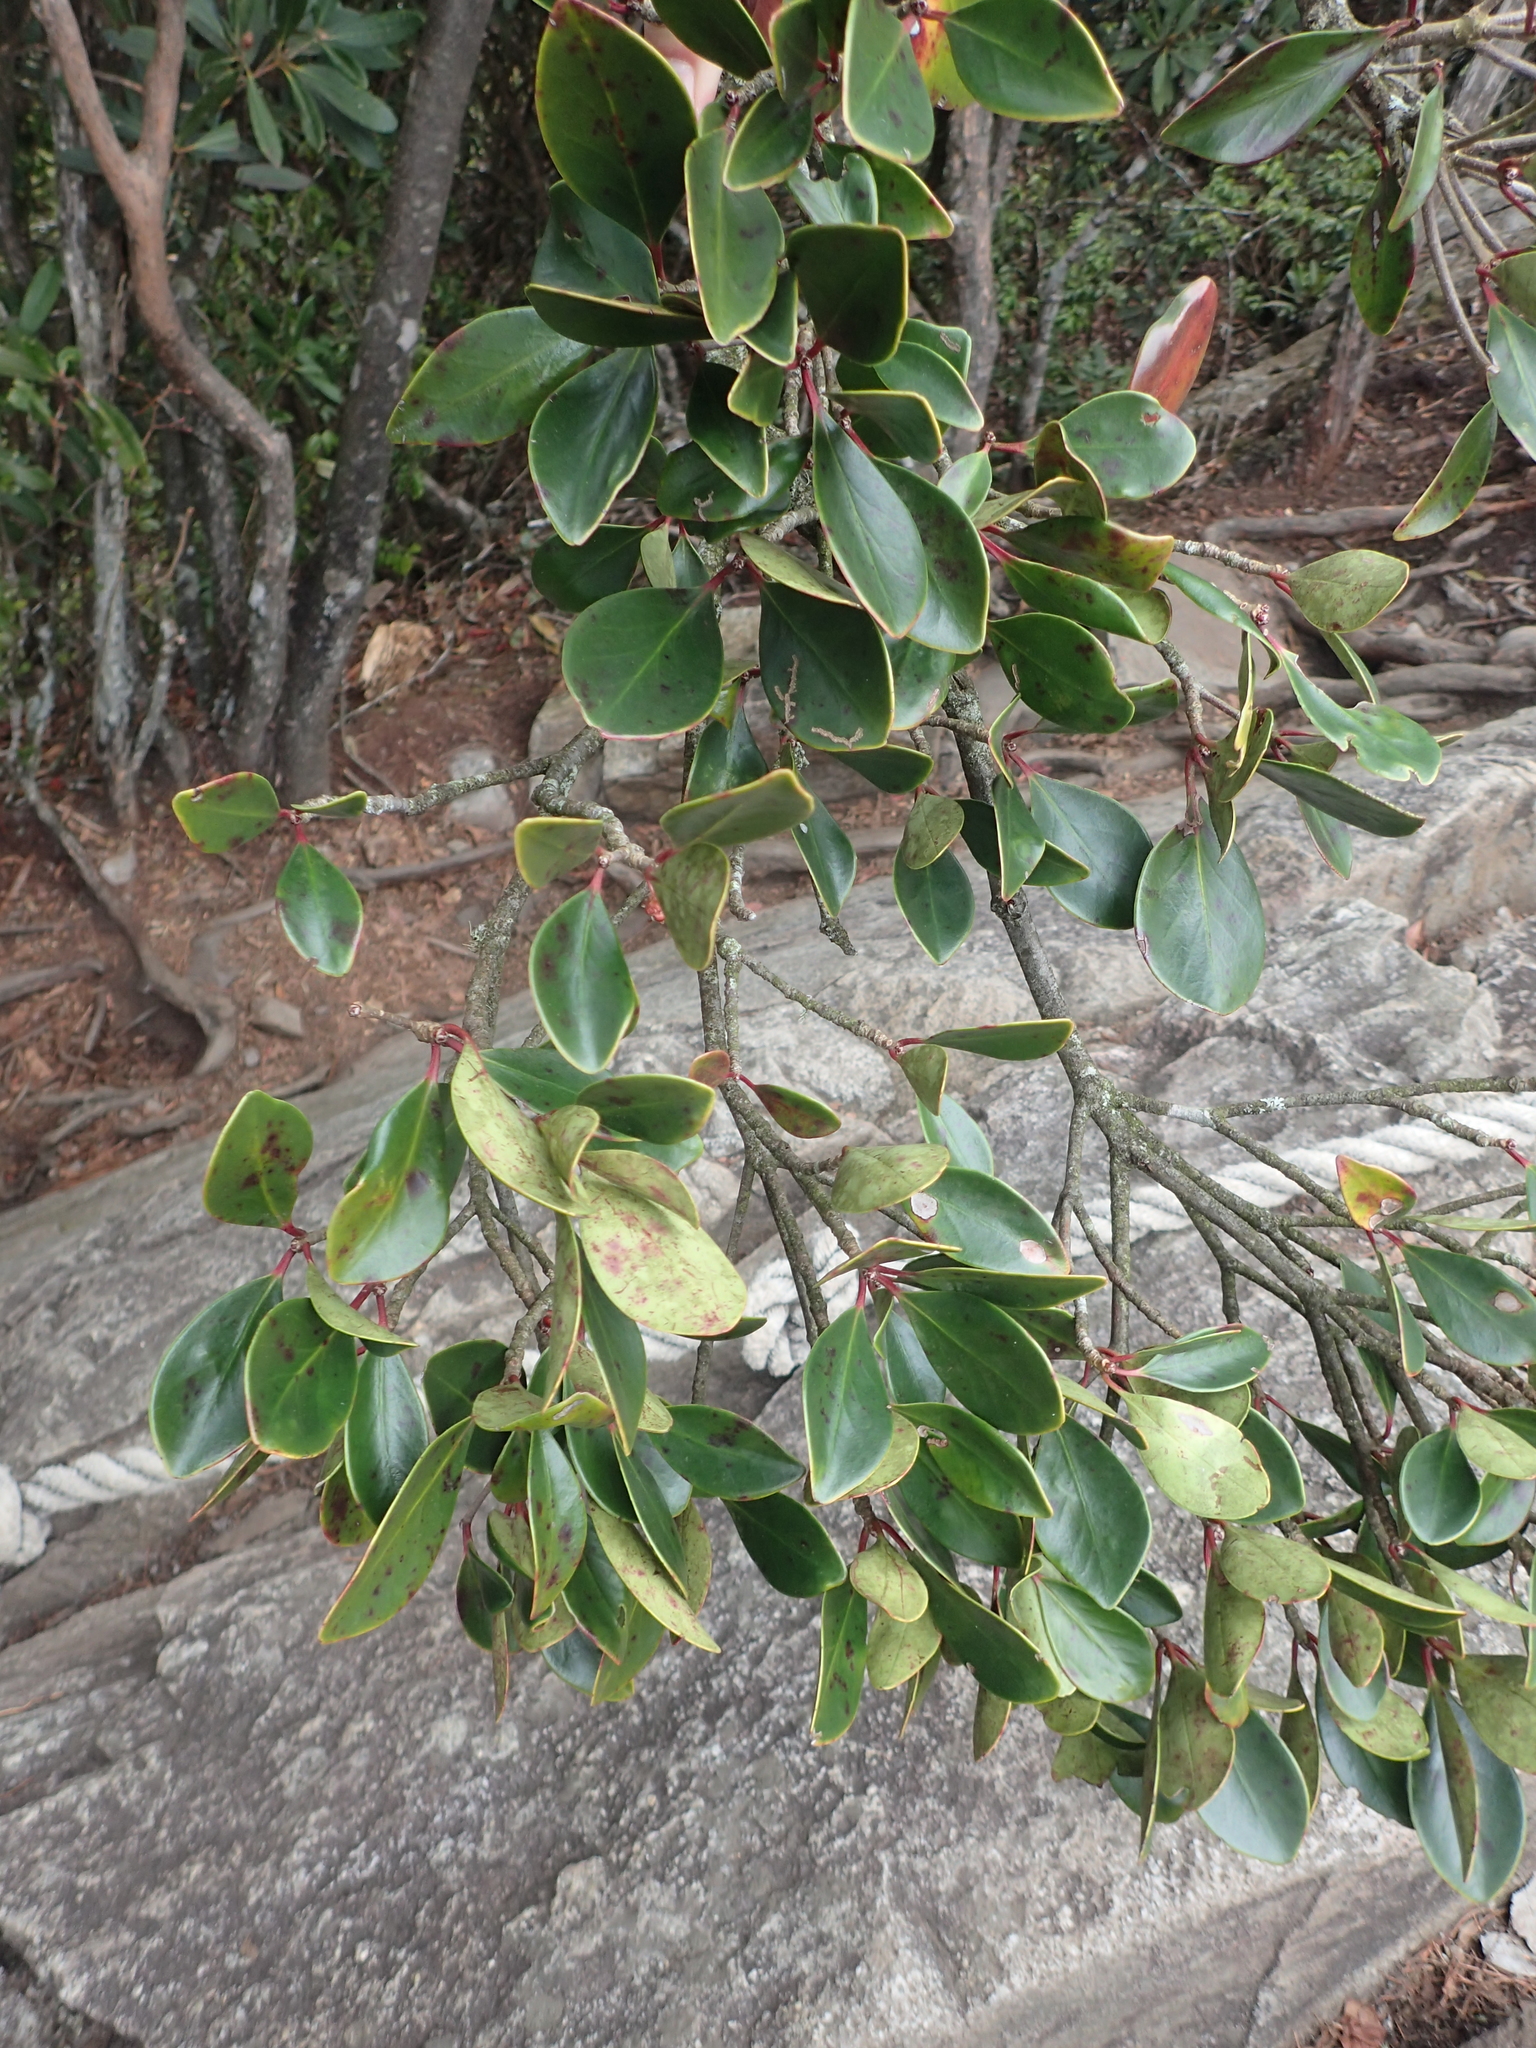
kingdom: Plantae
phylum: Tracheophyta
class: Magnoliopsida
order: Ericales
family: Pentaphylacaceae
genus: Ternstroemia
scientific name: Ternstroemia gymnanthera
